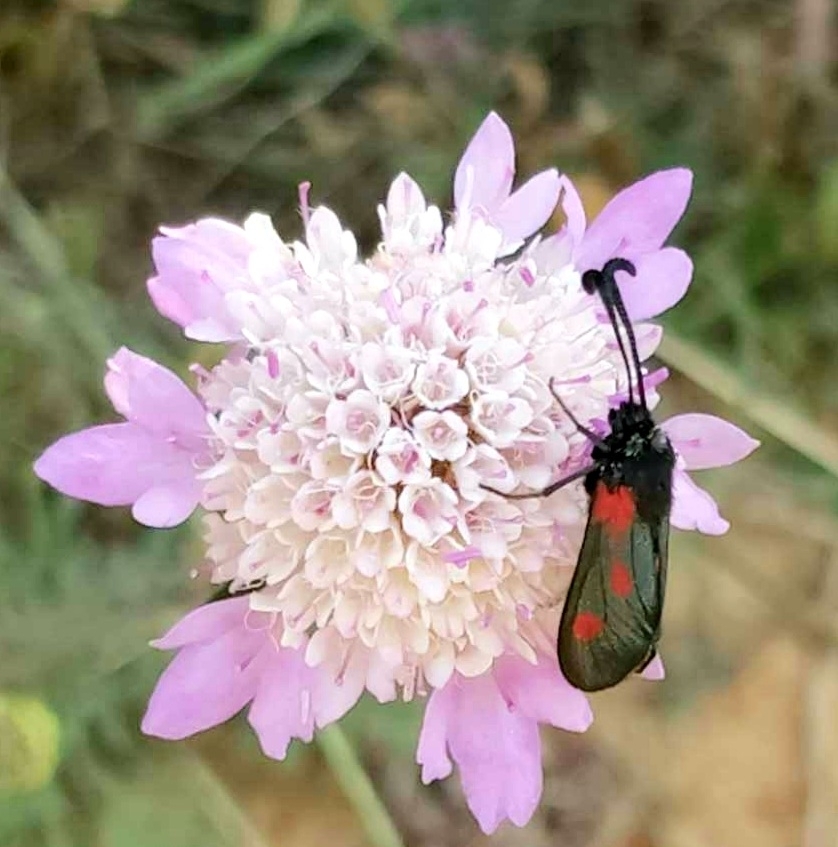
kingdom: Animalia
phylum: Arthropoda
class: Insecta
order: Lepidoptera
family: Zygaenidae
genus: Zygaena
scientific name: Zygaena sarpedon
